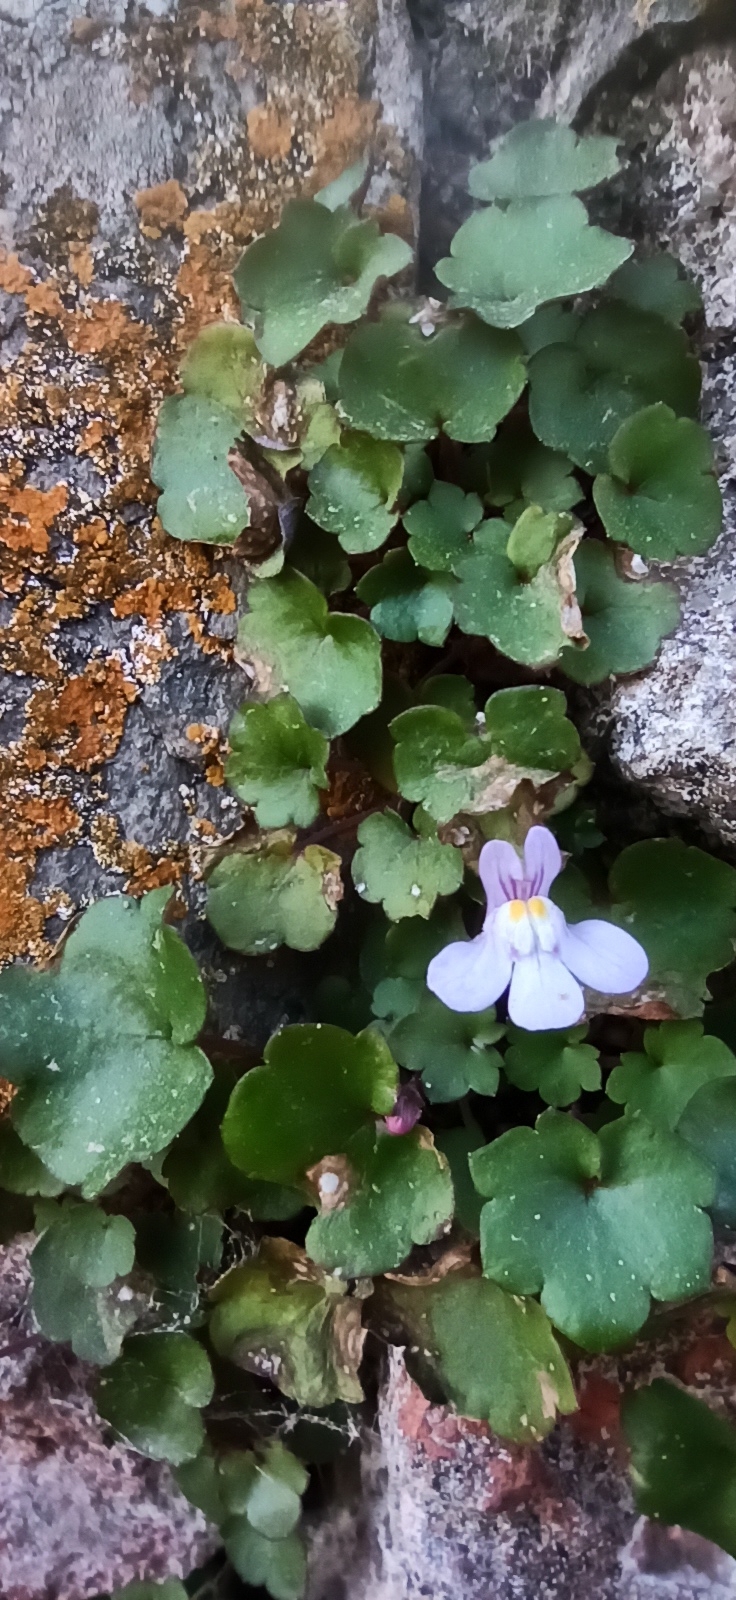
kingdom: Plantae
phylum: Tracheophyta
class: Magnoliopsida
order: Lamiales
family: Plantaginaceae
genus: Cymbalaria
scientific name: Cymbalaria muralis
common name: Ivy-leaved toadflax
